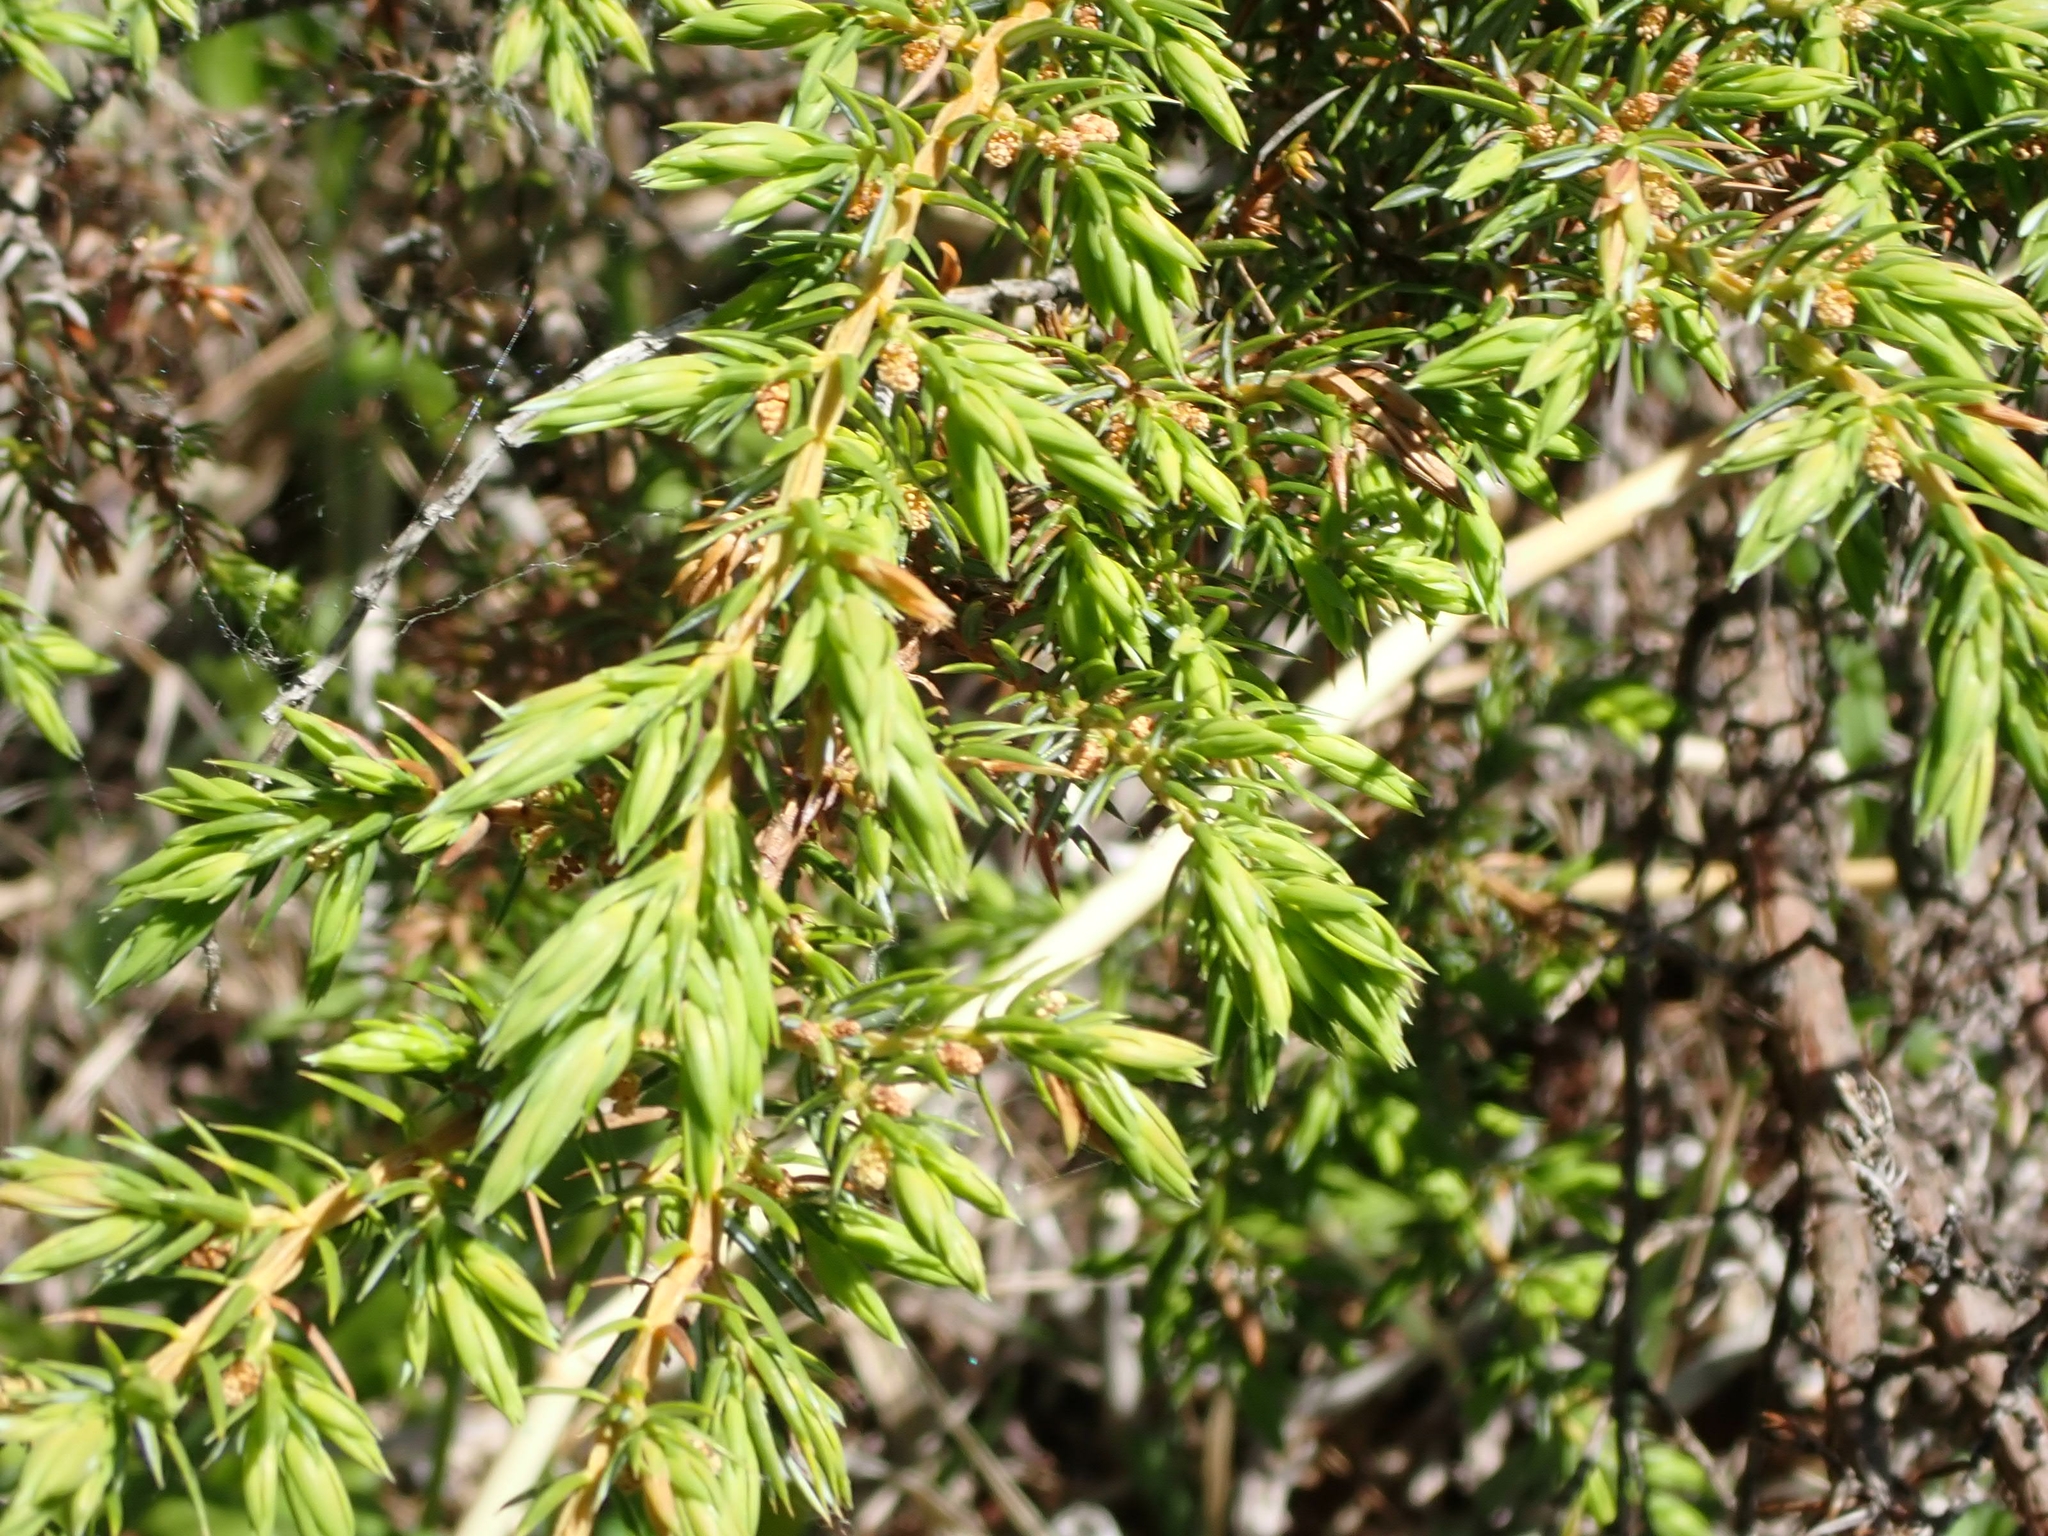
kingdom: Plantae
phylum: Tracheophyta
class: Pinopsida
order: Pinales
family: Cupressaceae
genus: Juniperus
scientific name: Juniperus communis
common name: Common juniper
